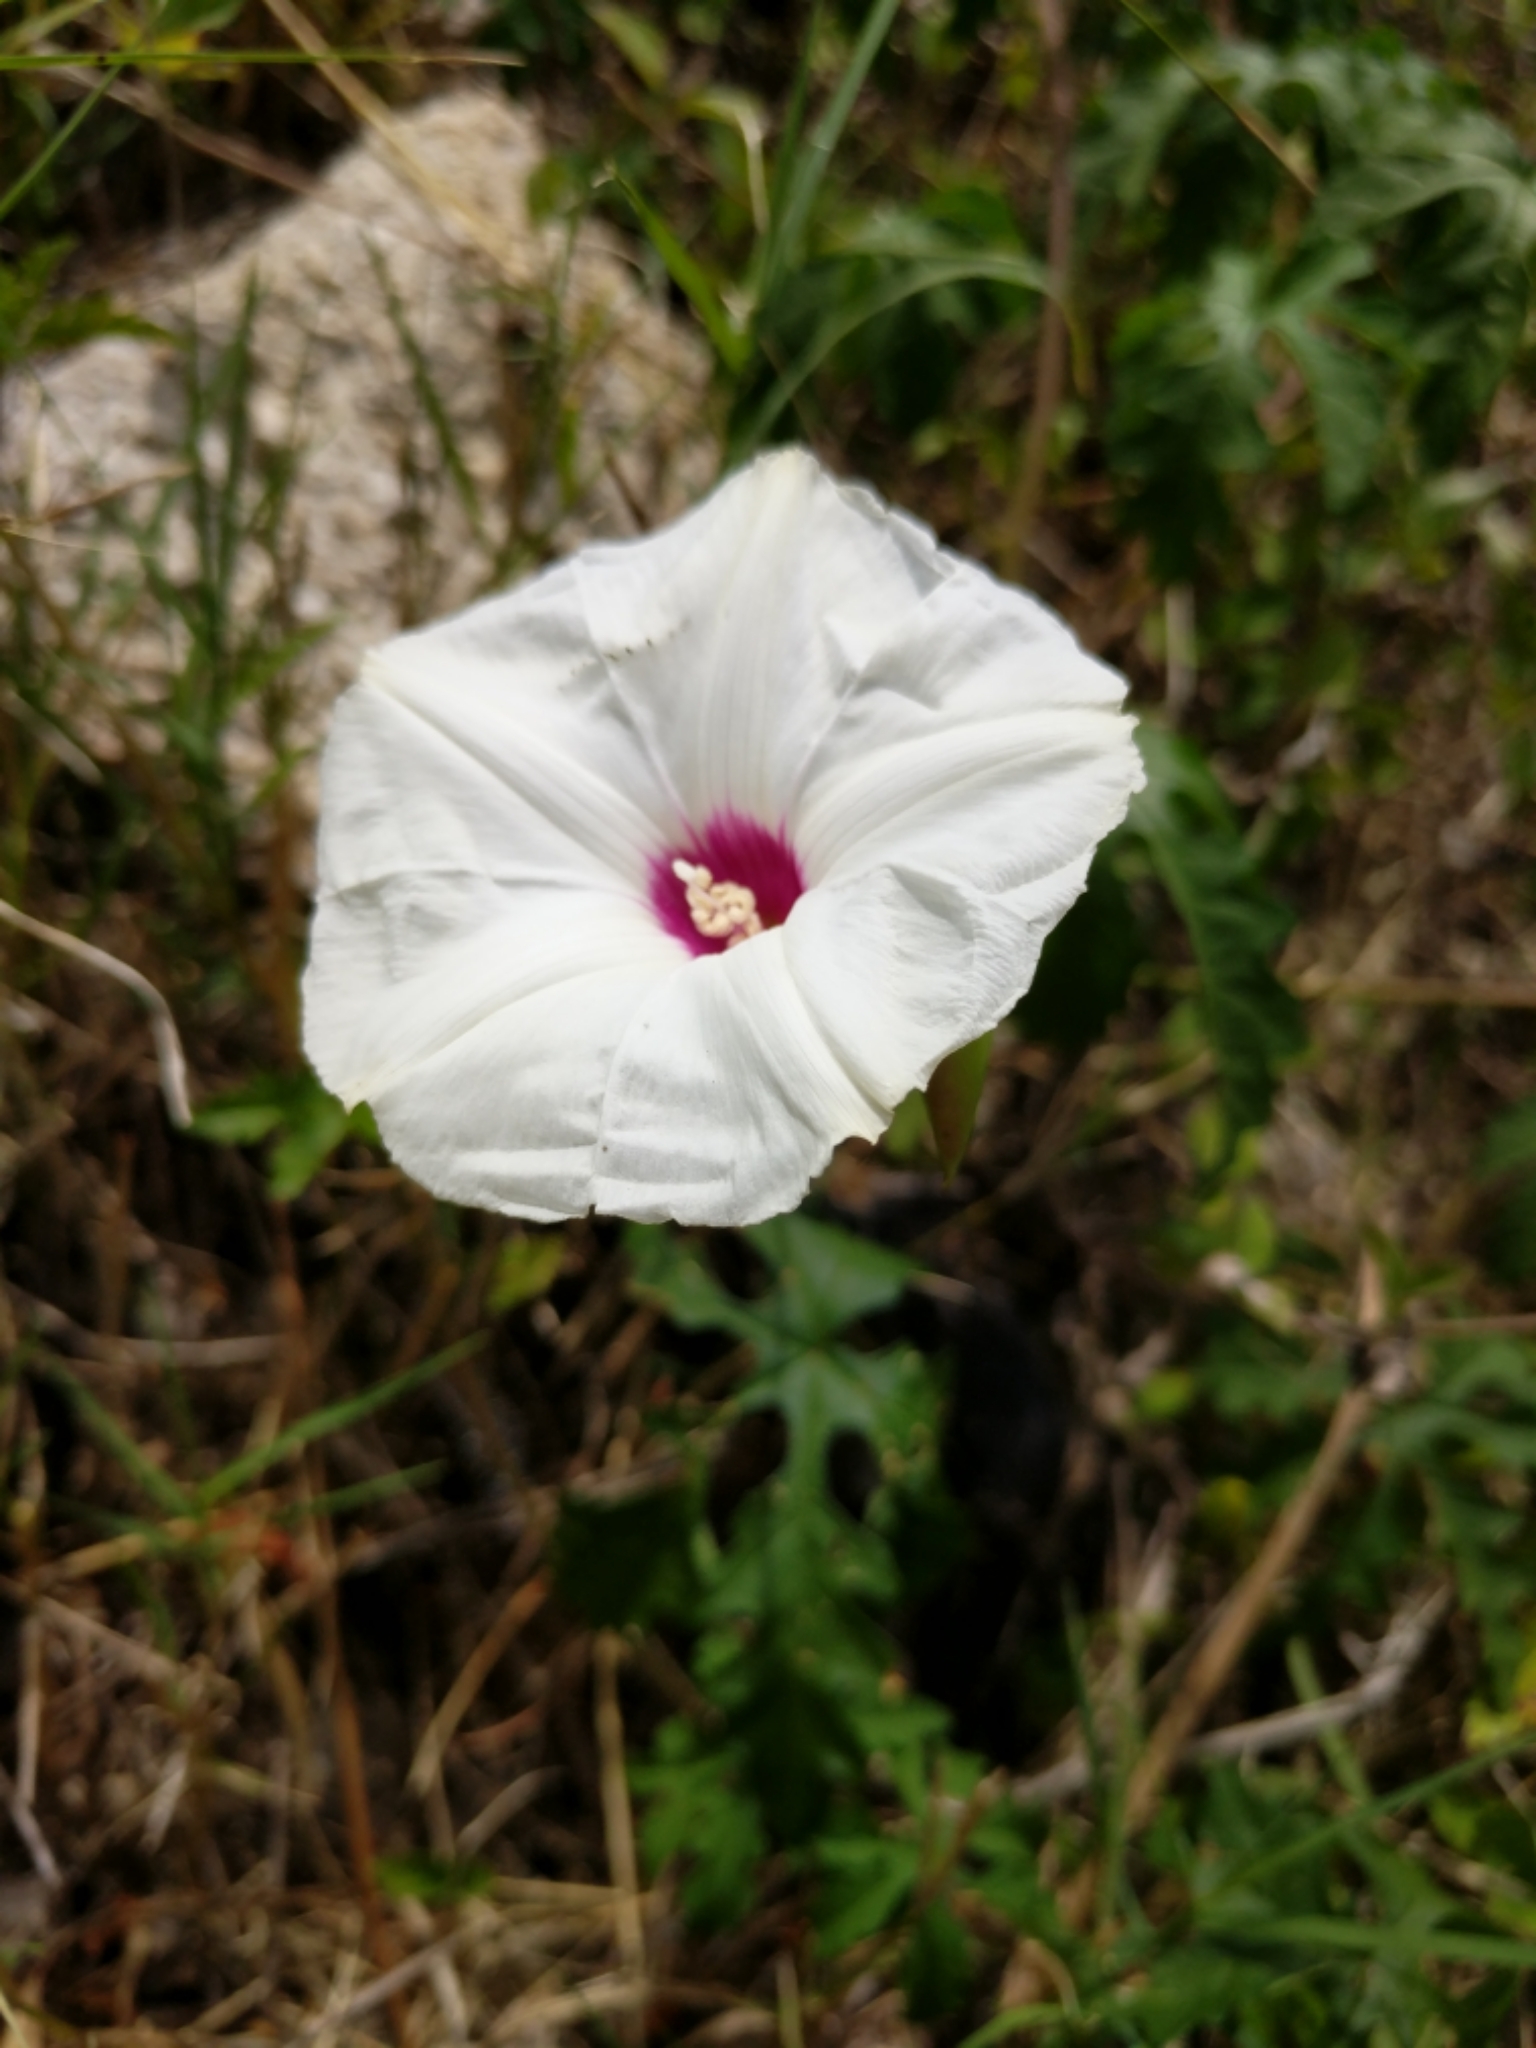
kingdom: Plantae
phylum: Tracheophyta
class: Magnoliopsida
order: Solanales
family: Convolvulaceae
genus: Distimake
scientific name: Distimake dissectus
